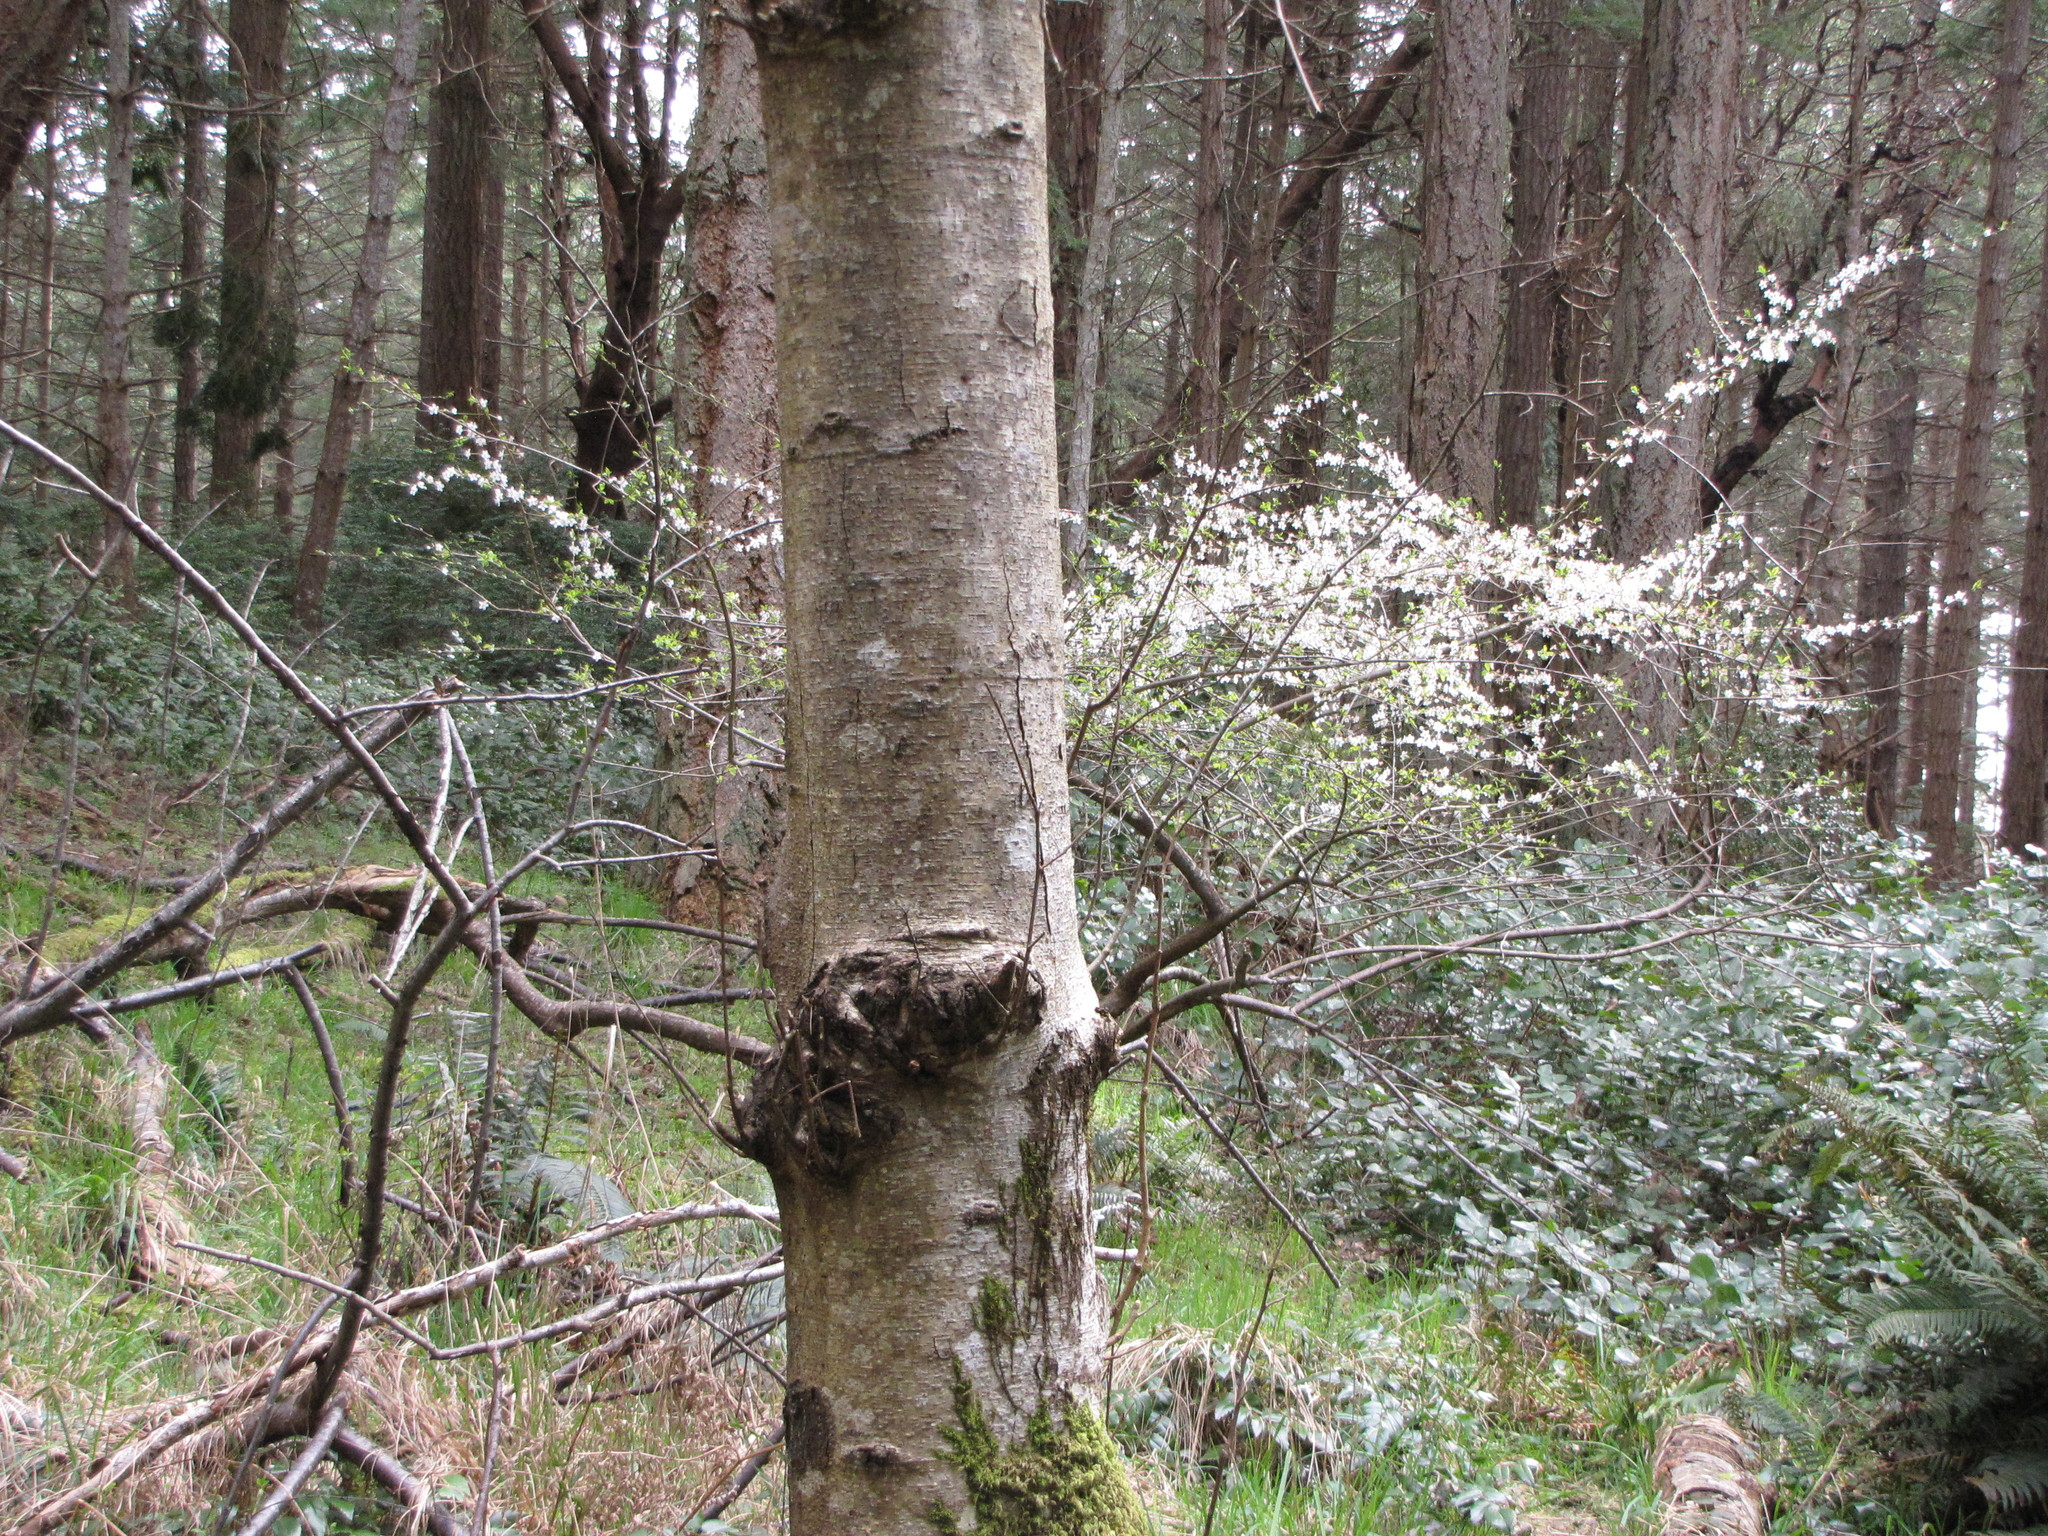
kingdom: Plantae
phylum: Tracheophyta
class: Magnoliopsida
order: Fagales
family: Betulaceae
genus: Alnus
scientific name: Alnus rubra
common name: Red alder
